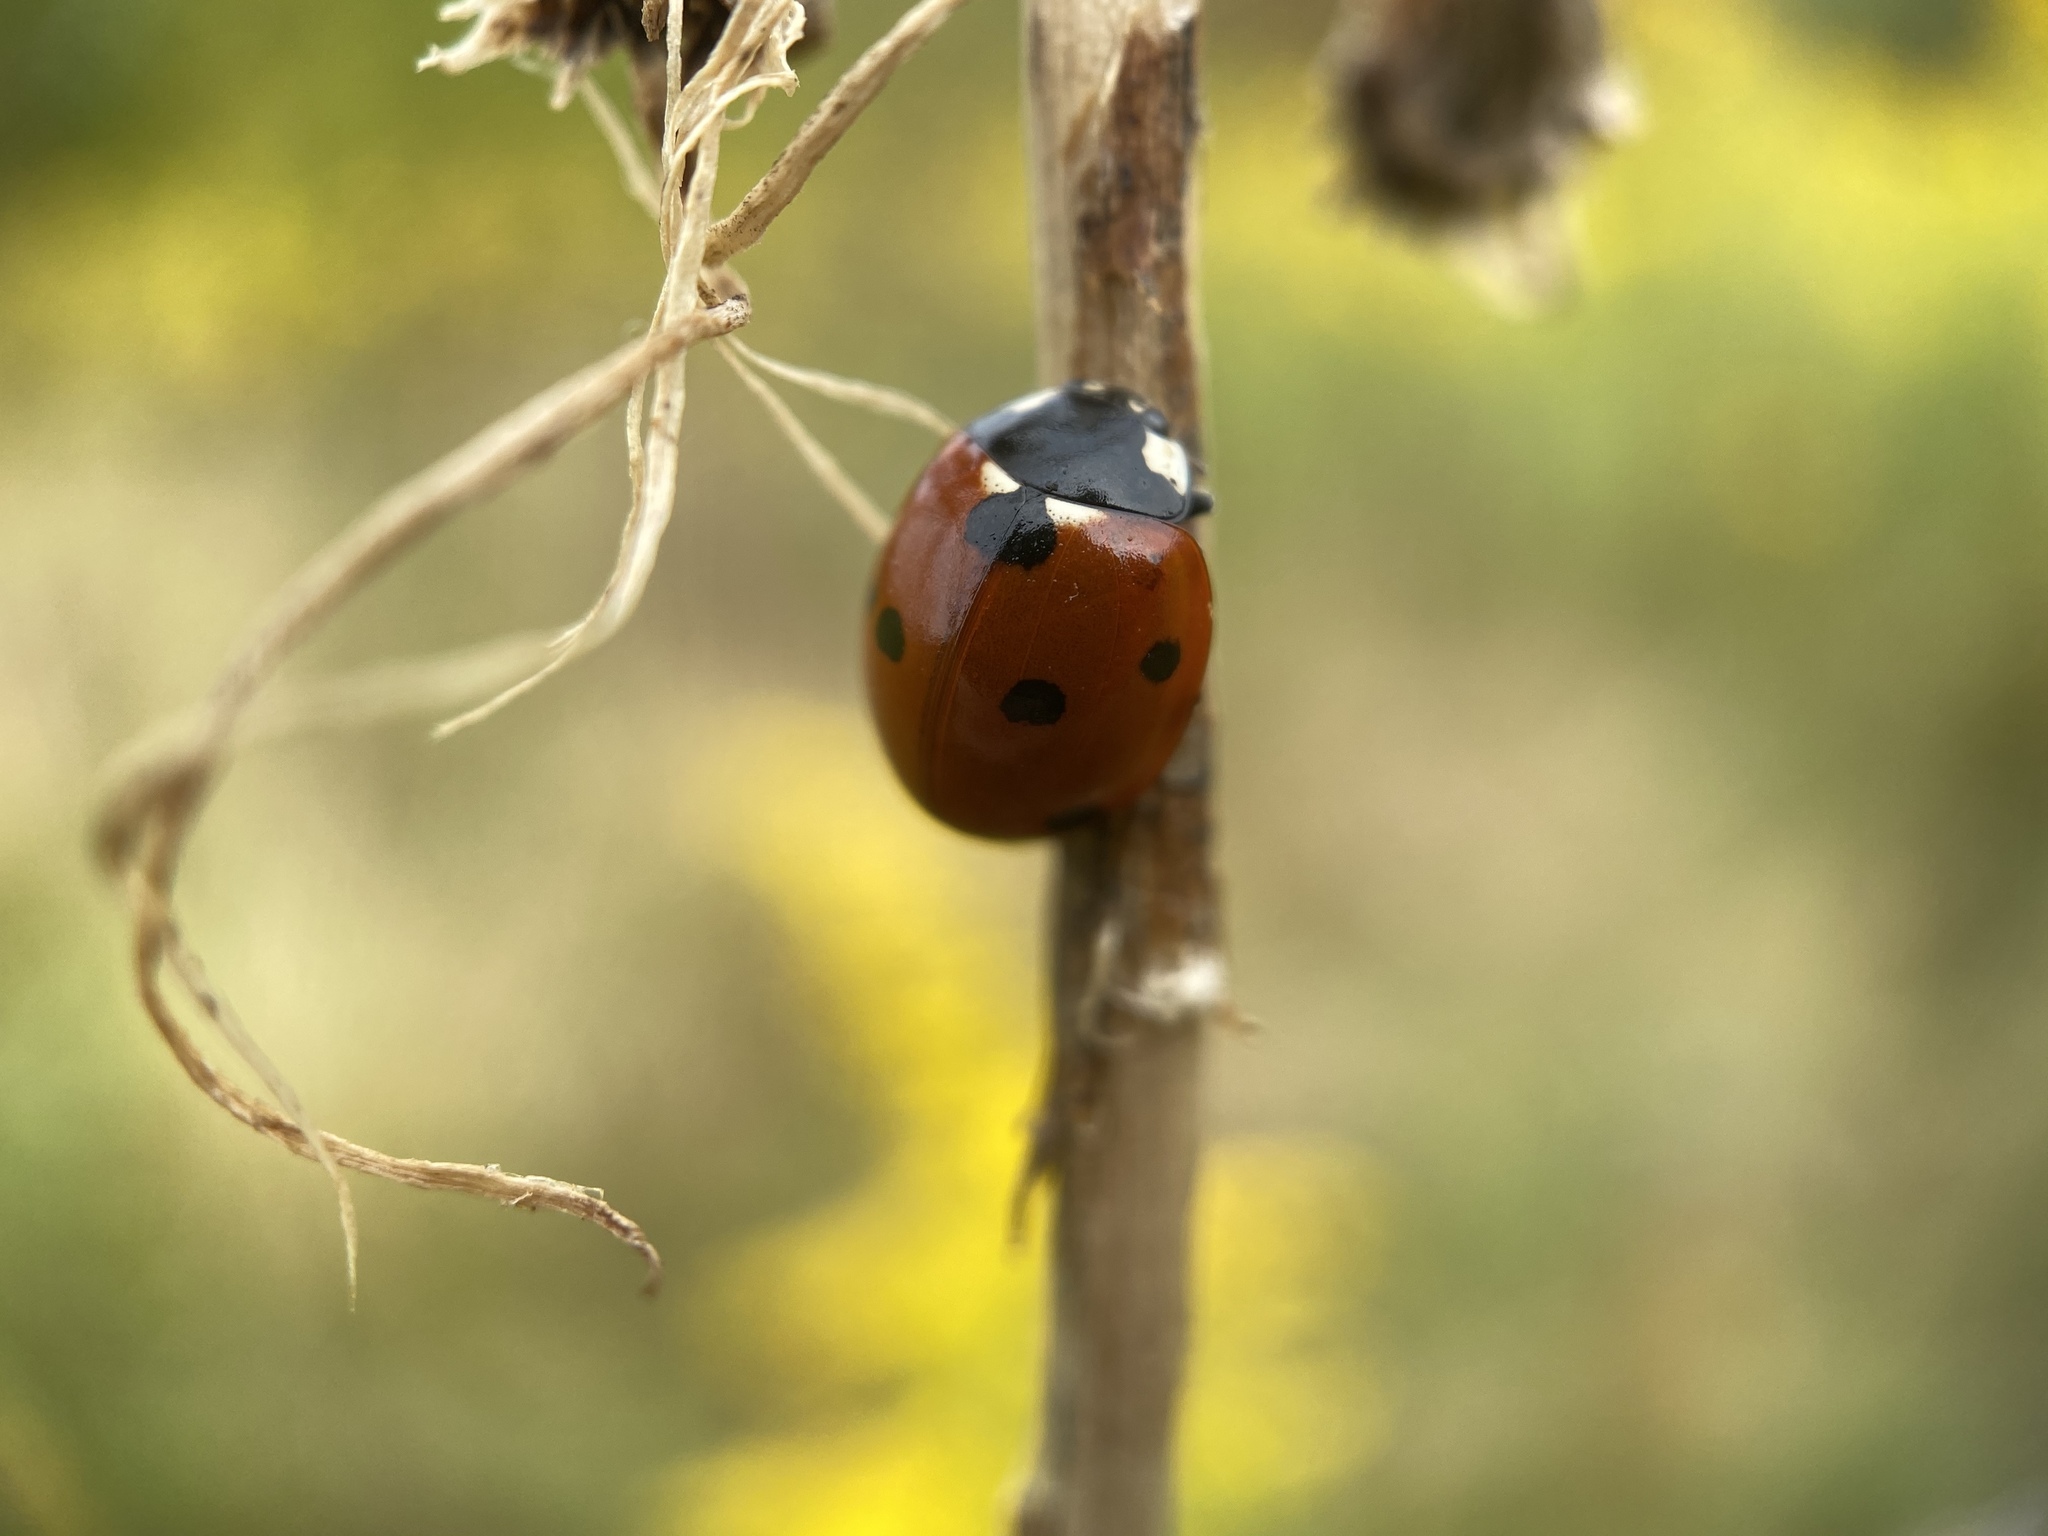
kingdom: Animalia
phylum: Arthropoda
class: Insecta
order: Coleoptera
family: Coccinellidae
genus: Coccinella
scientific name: Coccinella septempunctata
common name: Sevenspotted lady beetle
